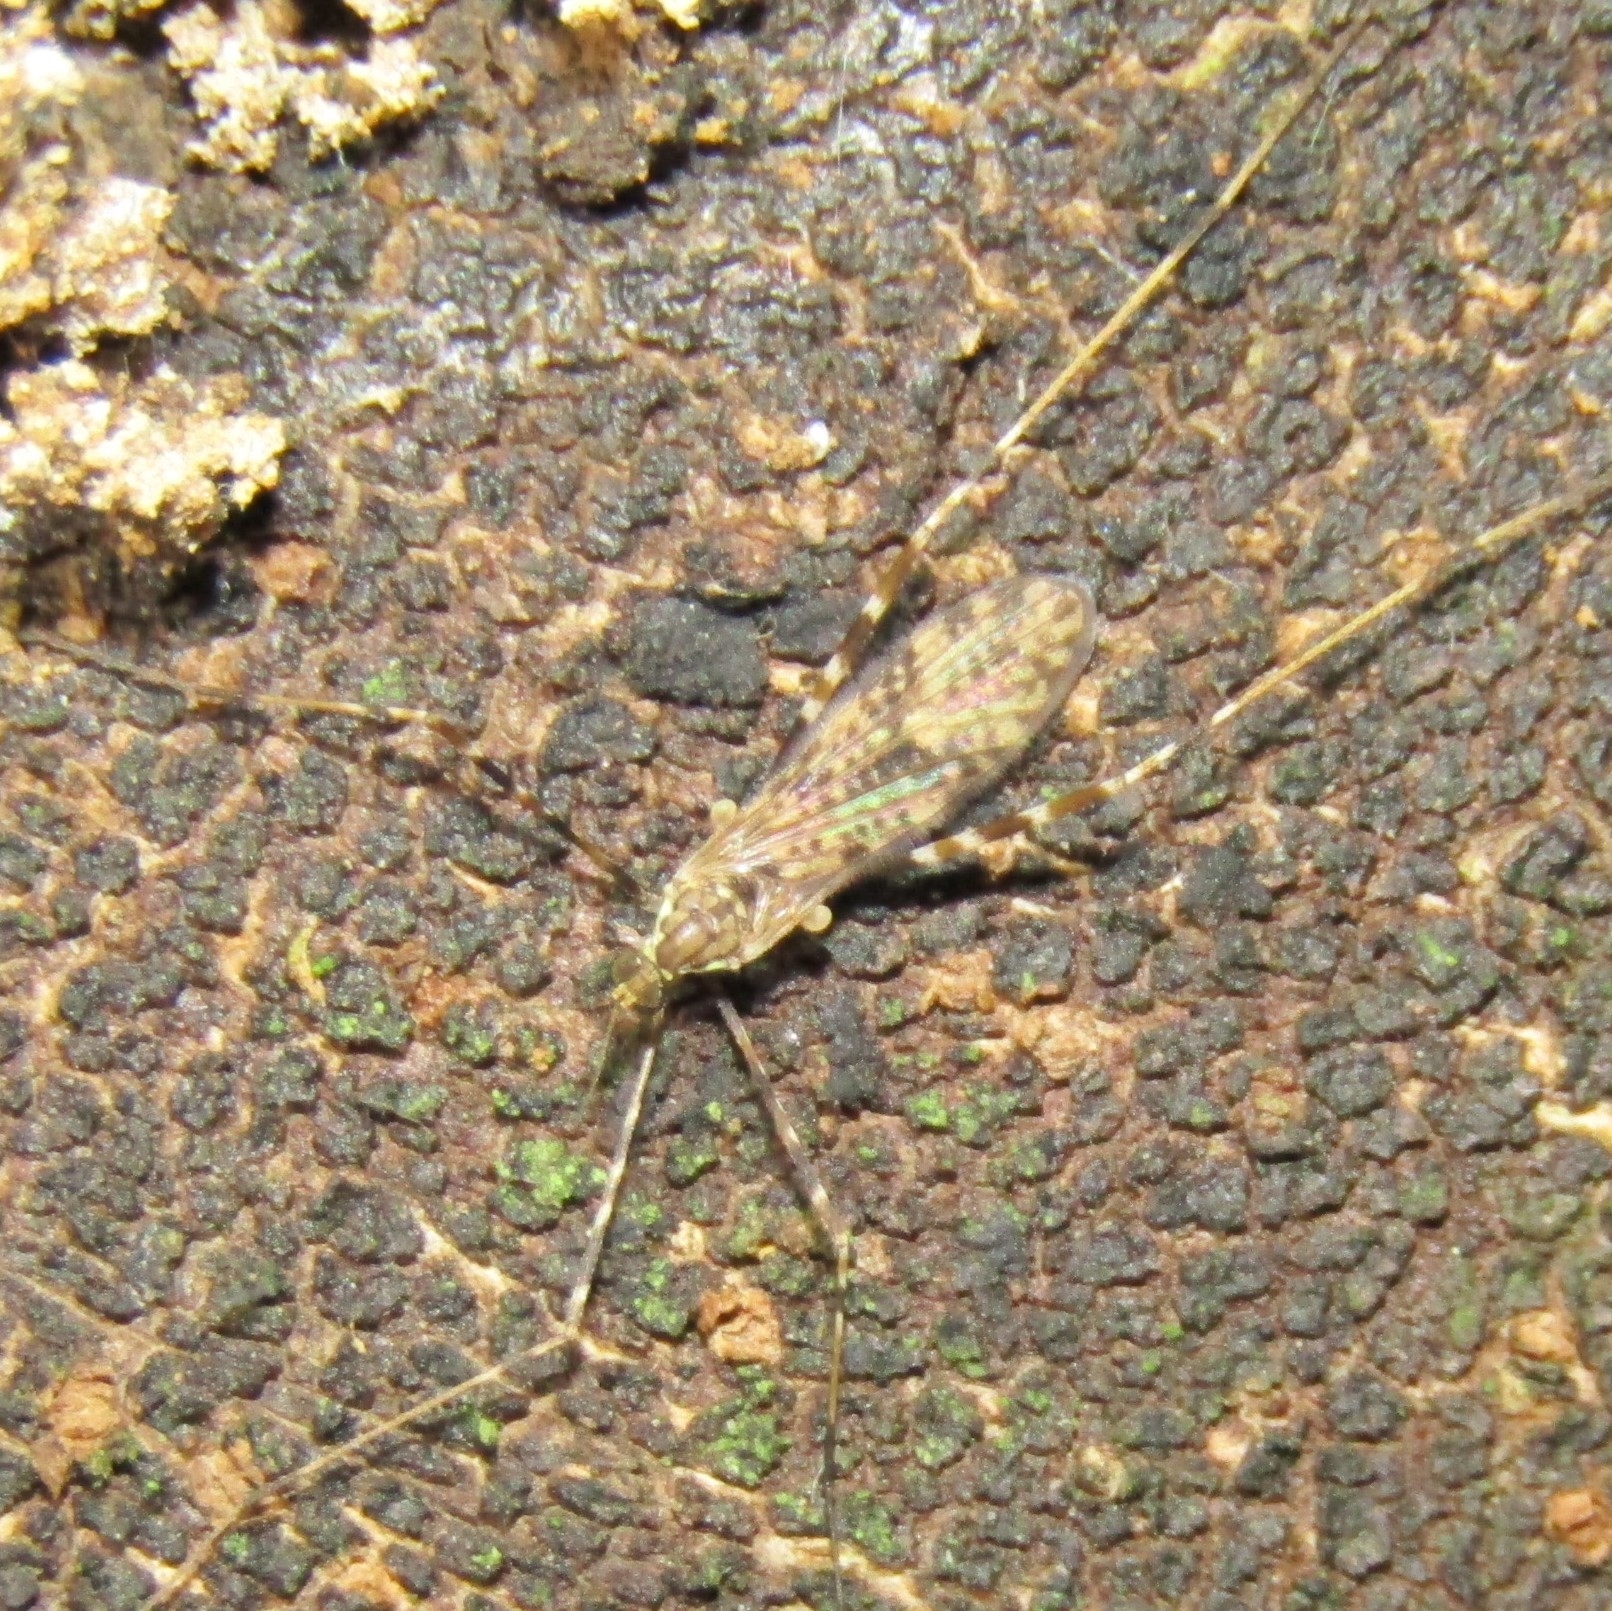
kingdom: Animalia
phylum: Arthropoda
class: Insecta
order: Diptera
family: Limoniidae
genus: Amphineurus
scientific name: Amphineurus hudsoni
